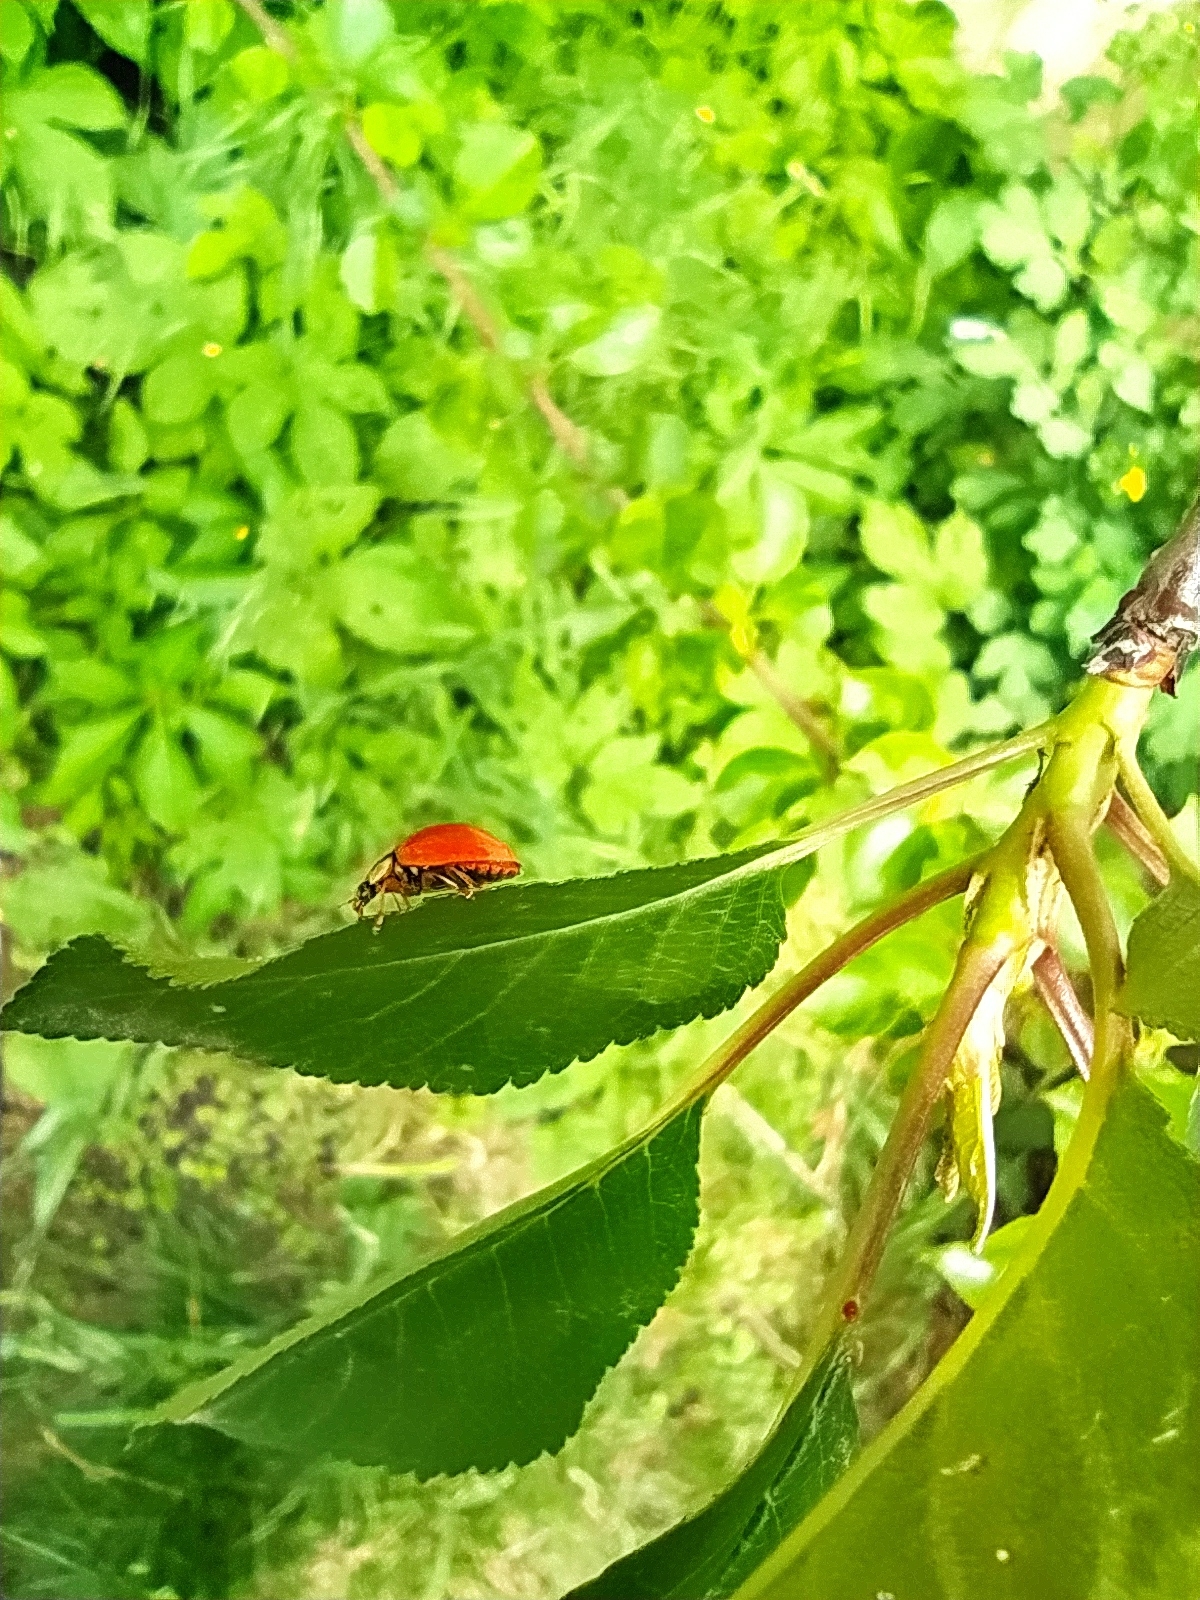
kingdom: Animalia
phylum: Arthropoda
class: Insecta
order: Coleoptera
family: Coccinellidae
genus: Harmonia
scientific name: Harmonia axyridis
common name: Harlequin ladybird
